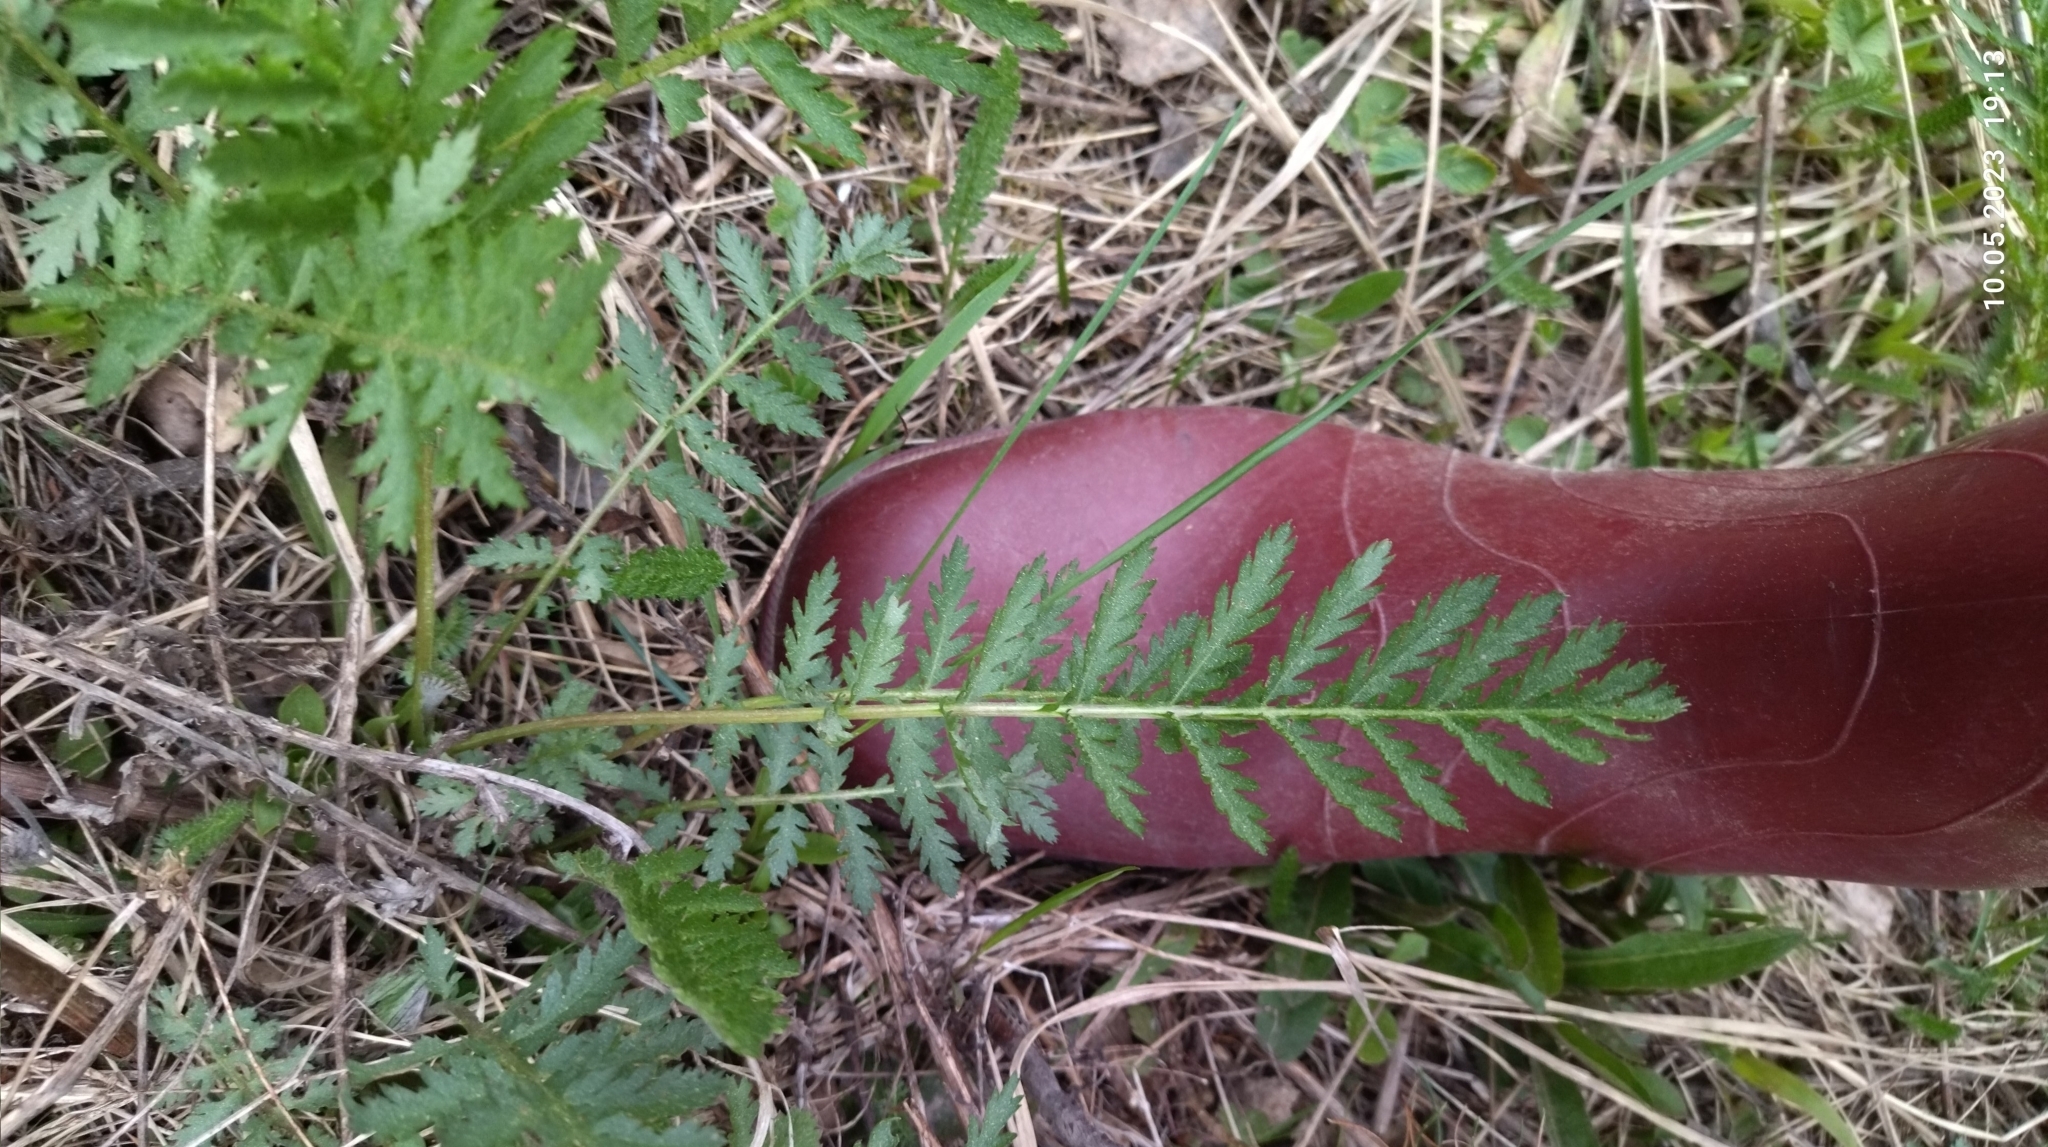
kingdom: Plantae
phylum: Tracheophyta
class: Magnoliopsida
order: Asterales
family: Asteraceae
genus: Tanacetum
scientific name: Tanacetum vulgare
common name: Common tansy
